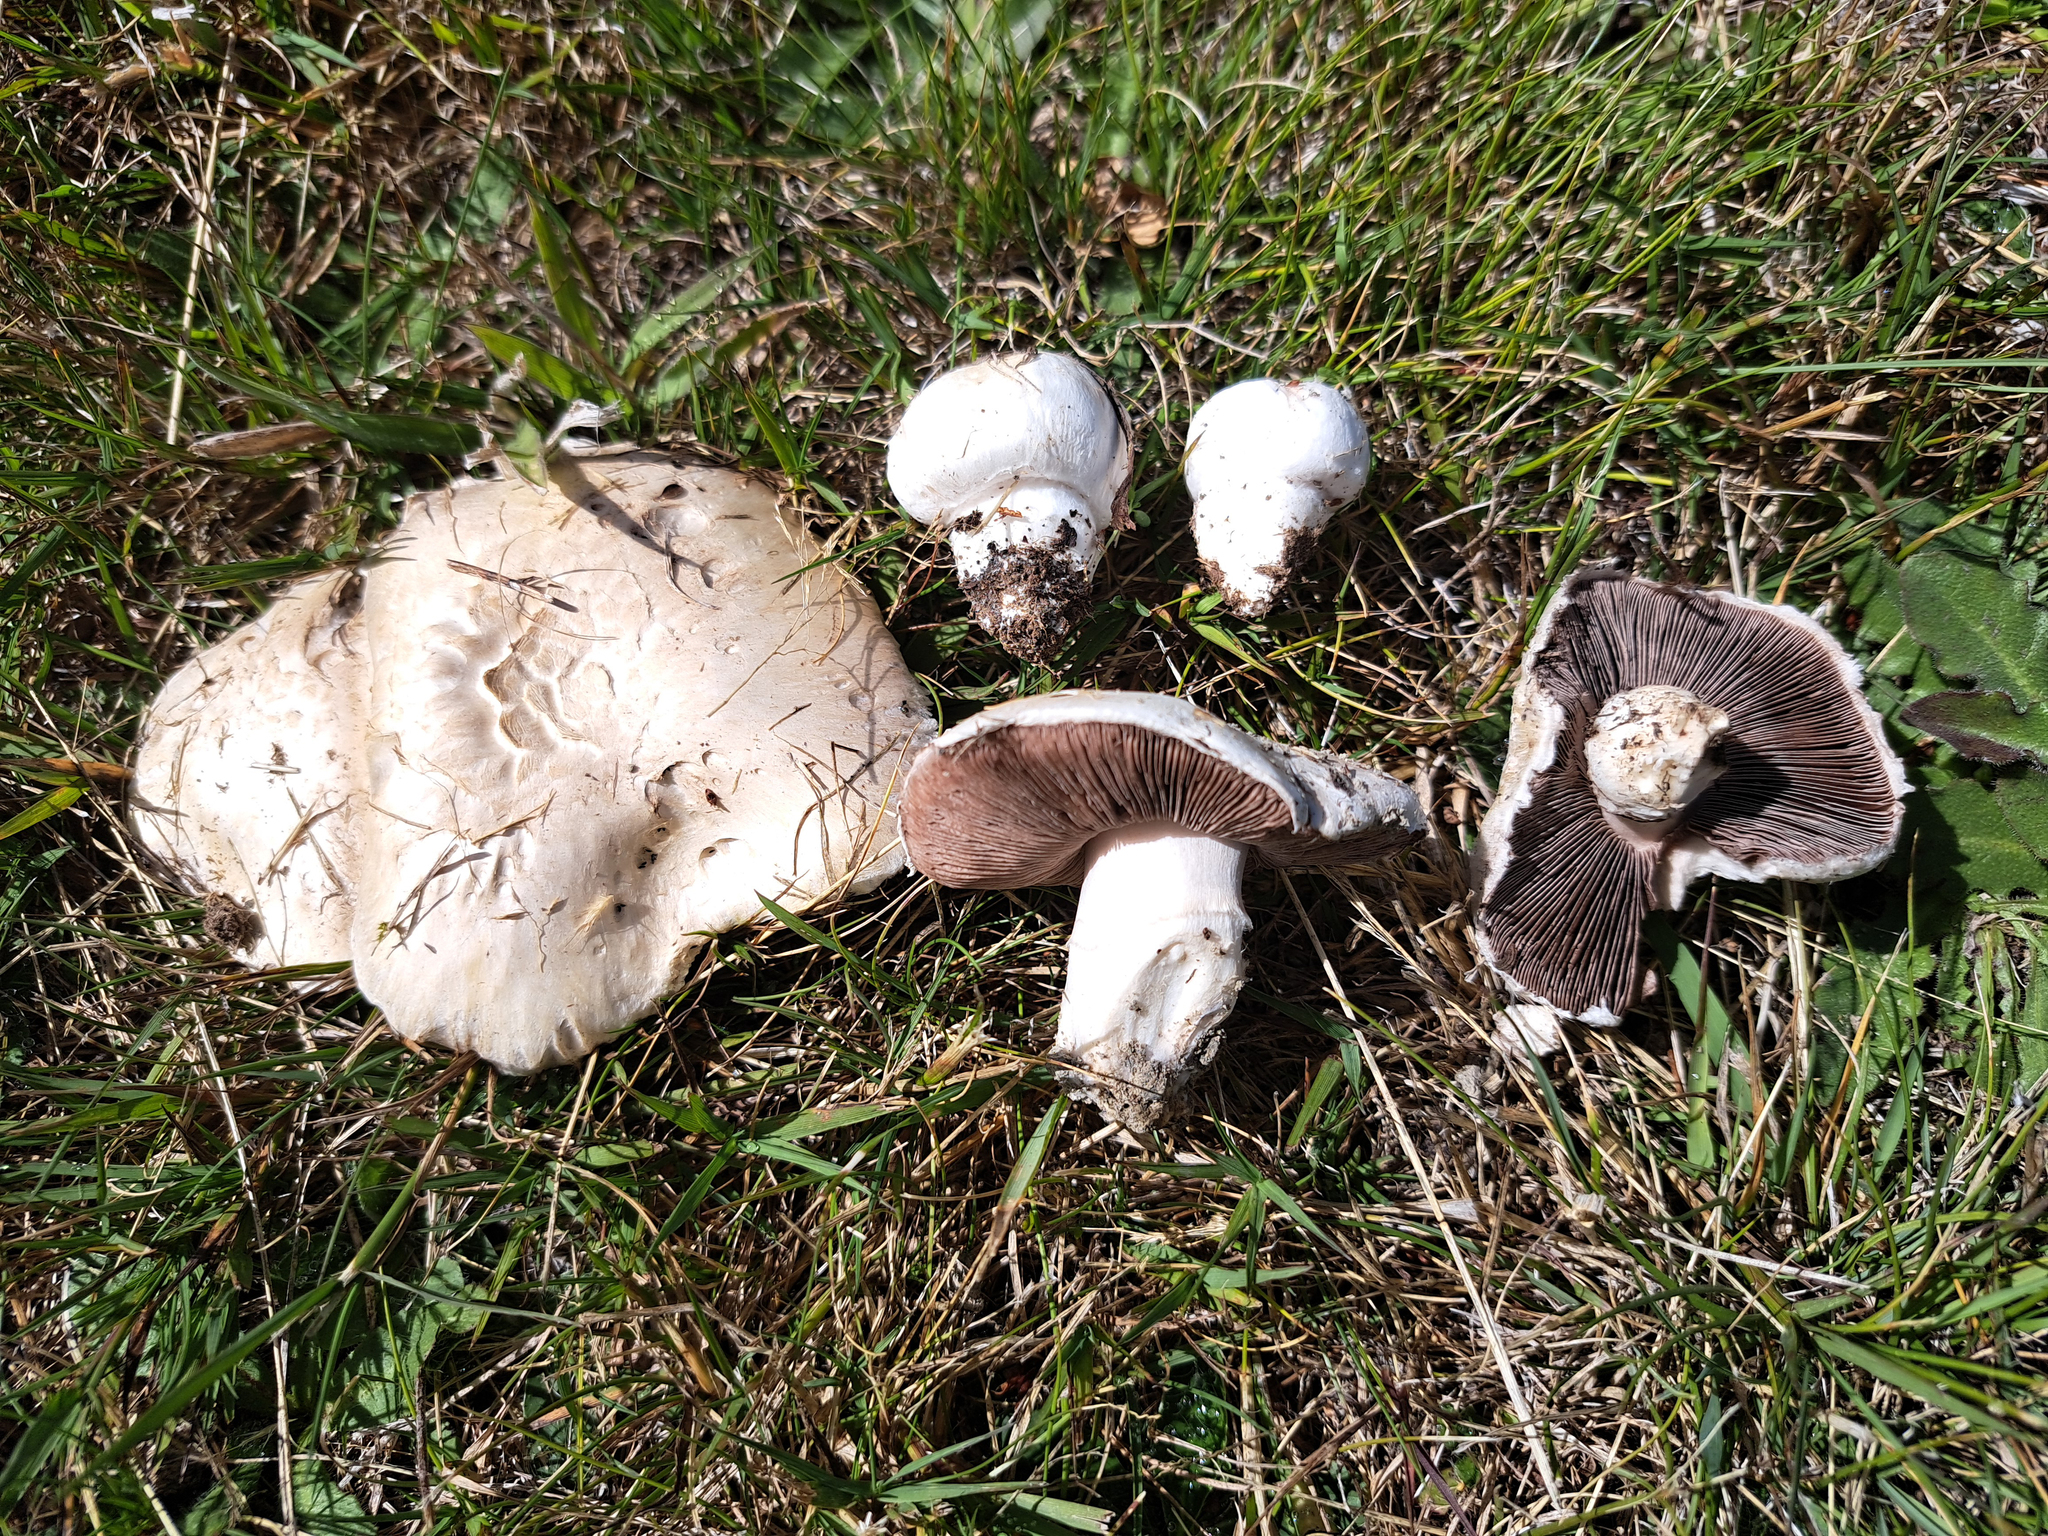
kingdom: Fungi
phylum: Basidiomycota
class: Agaricomycetes
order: Agaricales
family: Agaricaceae
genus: Agaricus
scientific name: Agaricus porphyrocephalus
